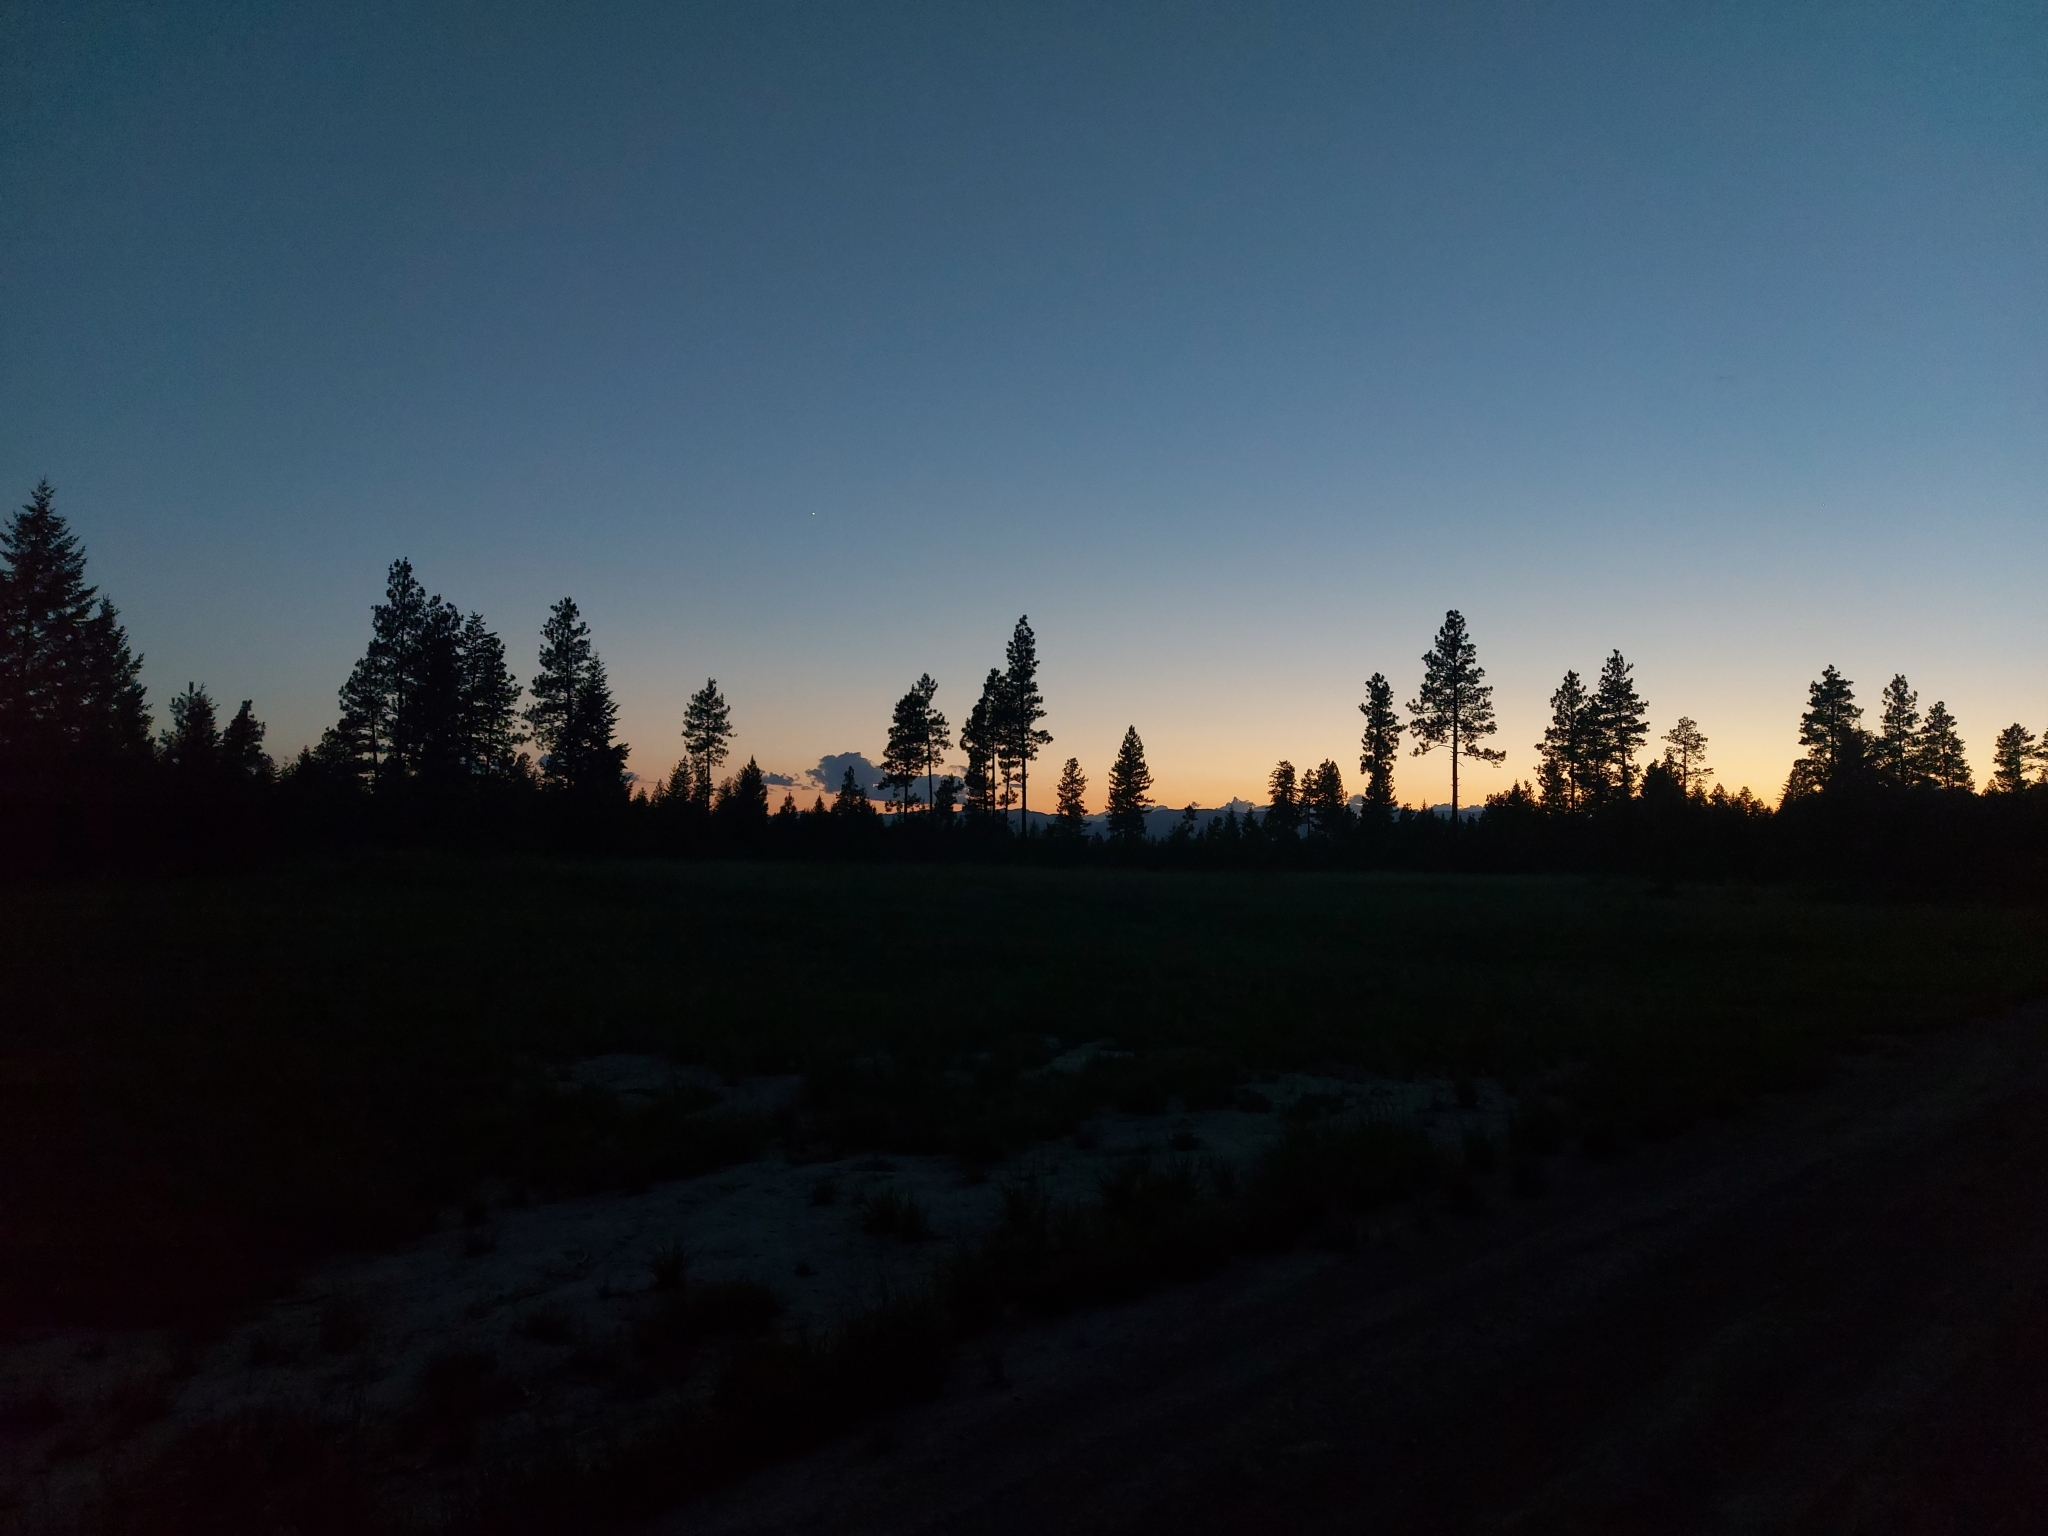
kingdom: Animalia
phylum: Chordata
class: Aves
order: Caprimulgiformes
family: Caprimulgidae
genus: Chordeiles
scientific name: Chordeiles minor
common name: Common nighthawk
